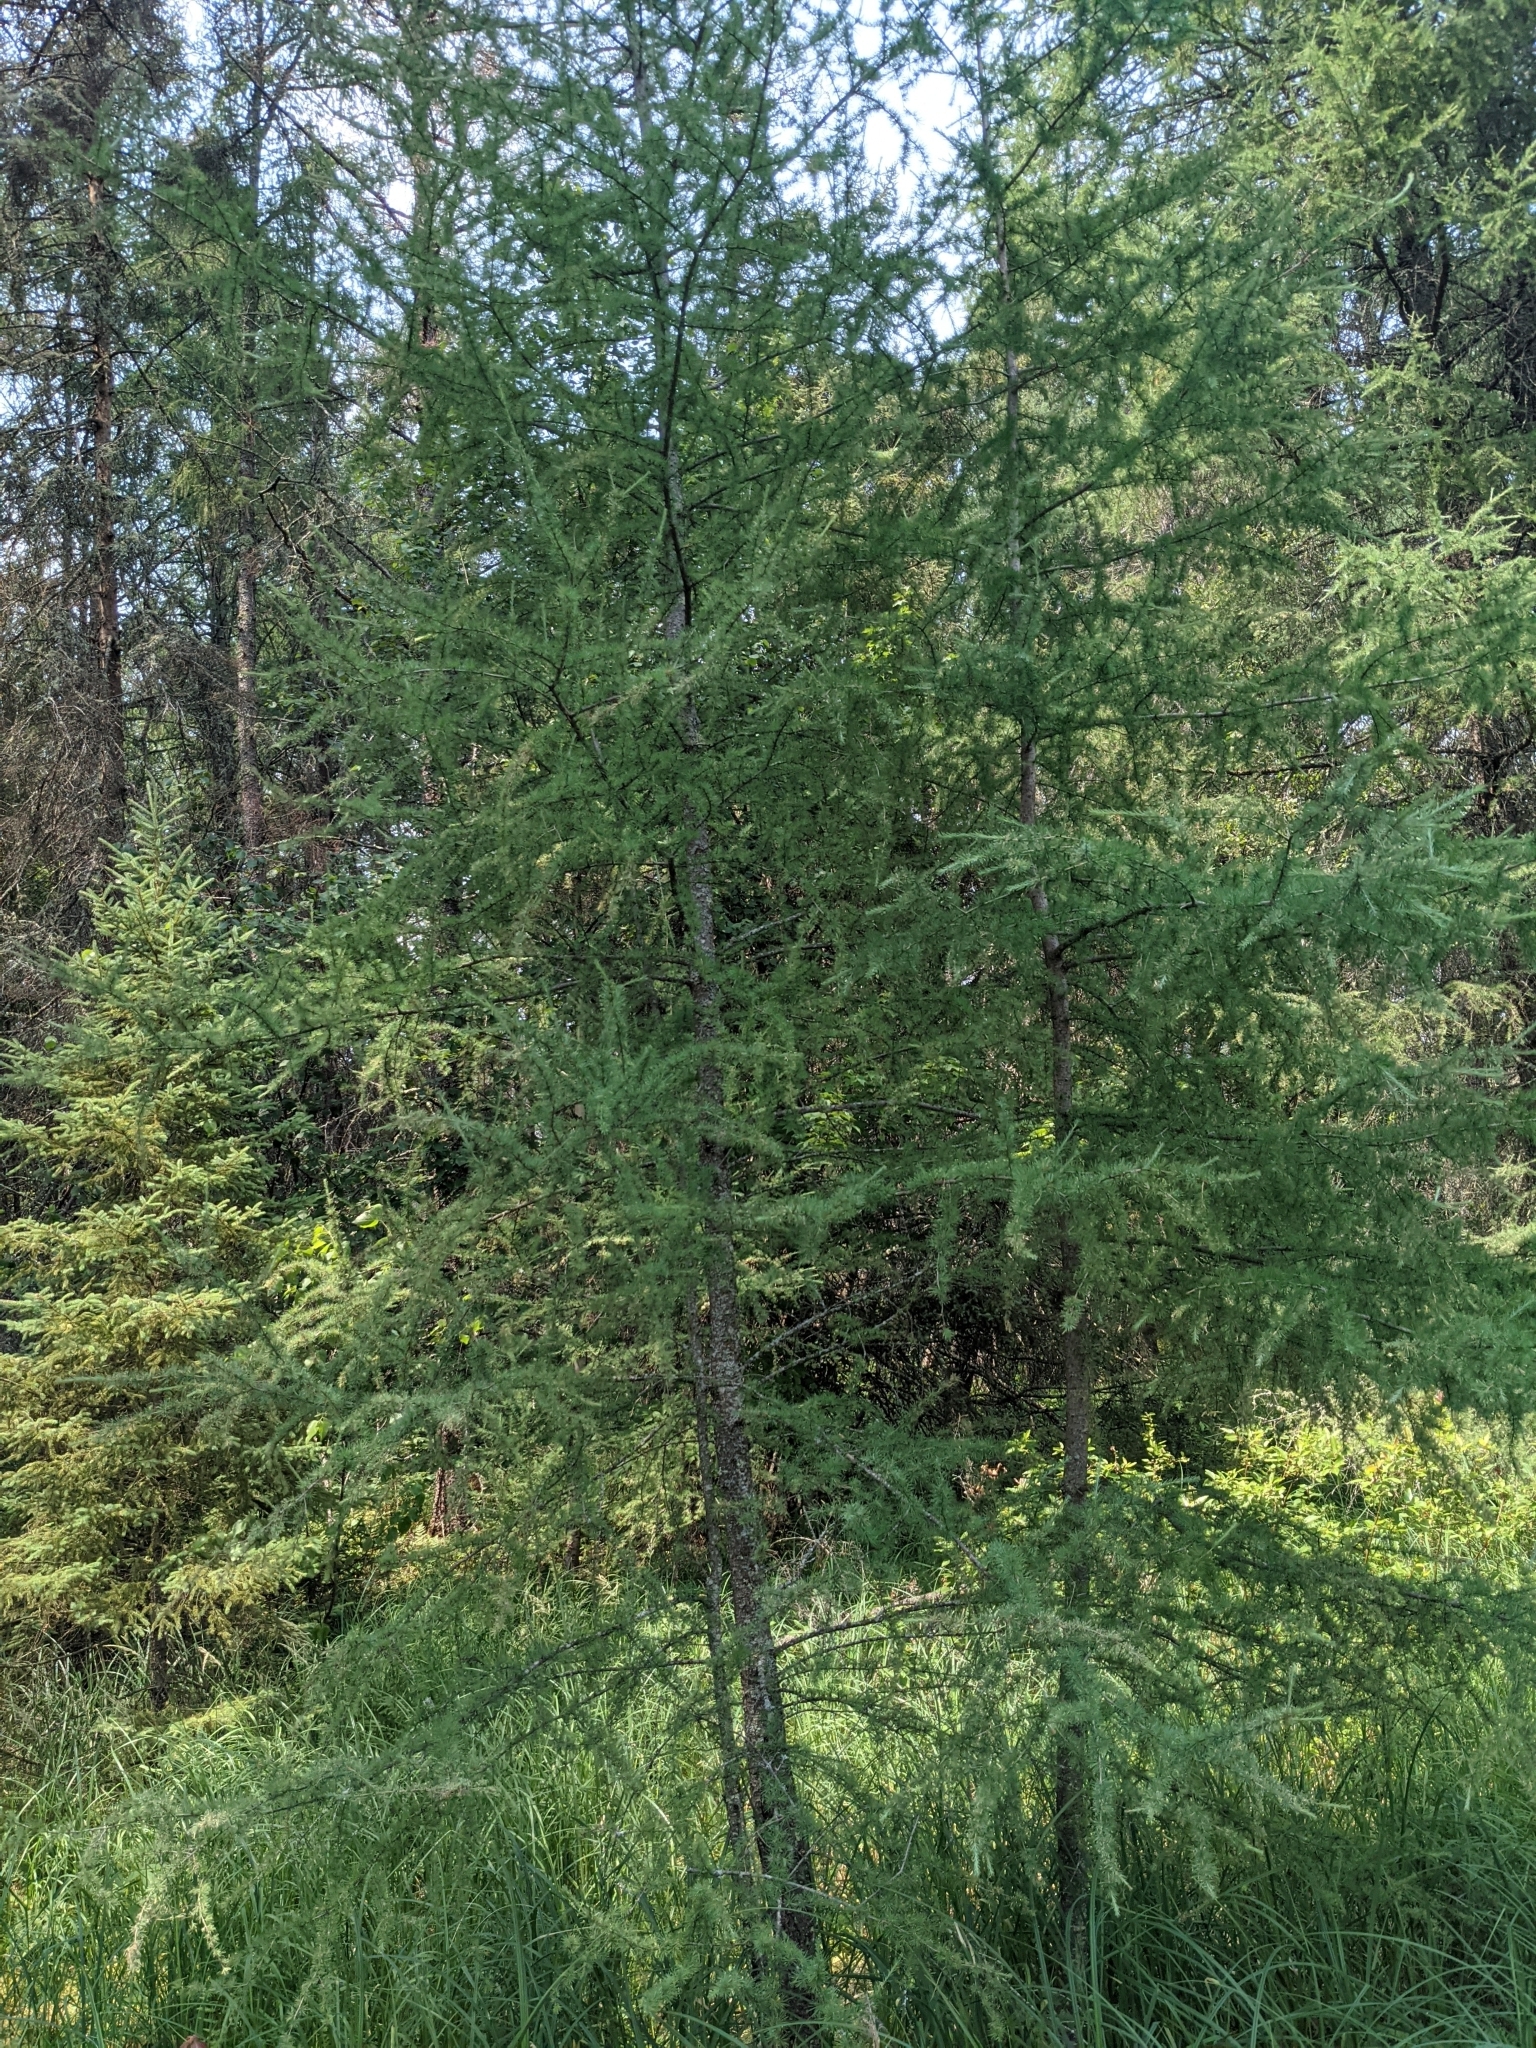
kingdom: Plantae
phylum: Tracheophyta
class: Pinopsida
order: Pinales
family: Pinaceae
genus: Larix
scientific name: Larix laricina
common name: American larch
